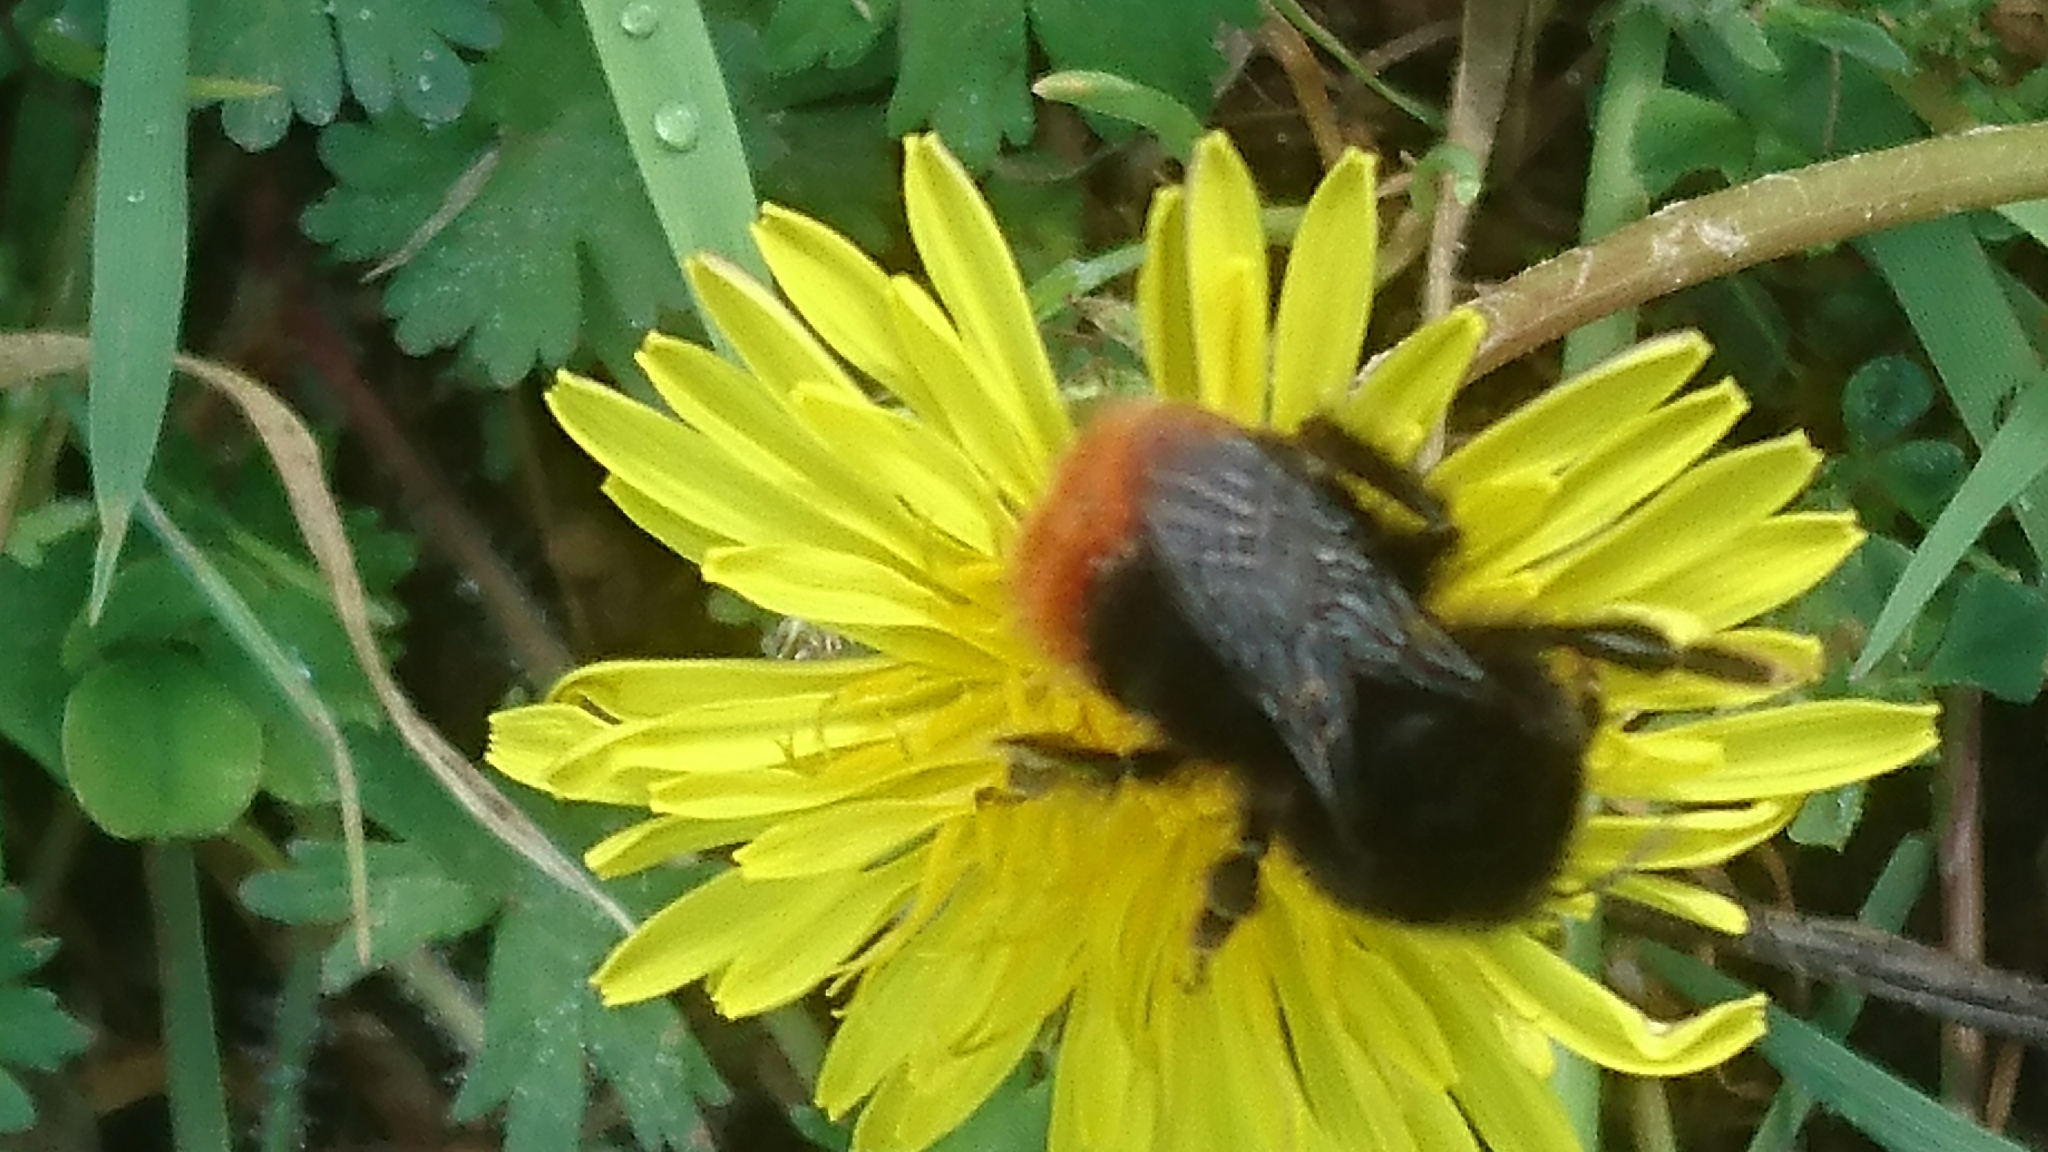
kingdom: Animalia
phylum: Arthropoda
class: Insecta
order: Hymenoptera
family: Apidae
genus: Bombus
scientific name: Bombus lapidarius
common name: Large red-tailed humble-bee
